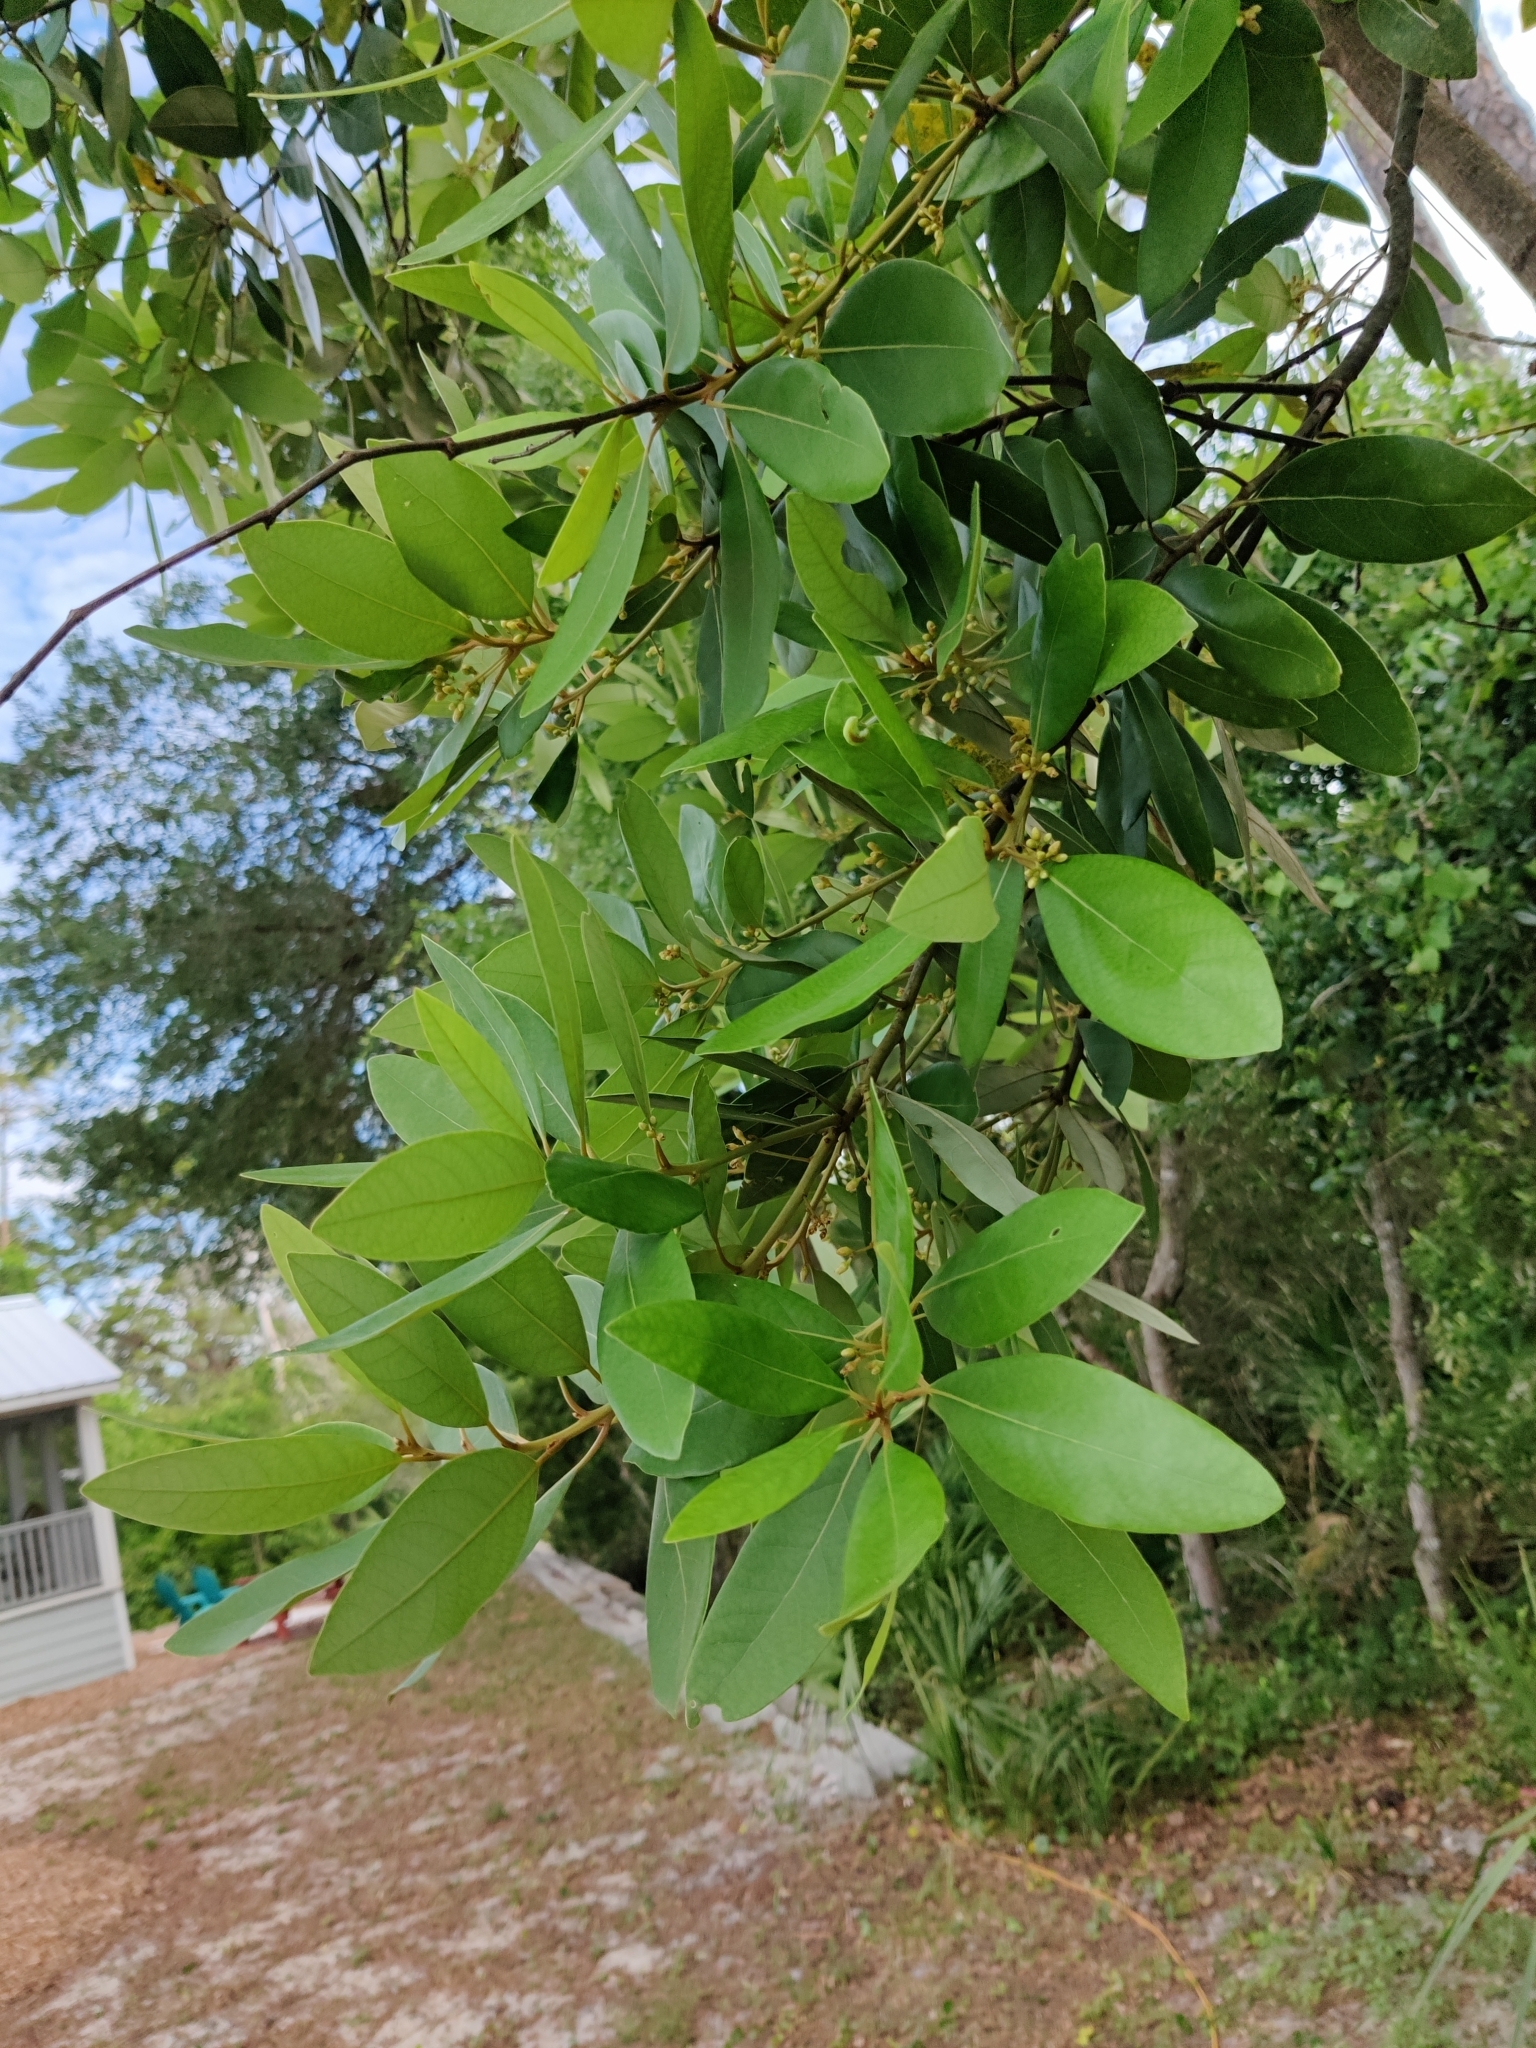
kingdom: Plantae
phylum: Tracheophyta
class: Magnoliopsida
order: Laurales
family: Lauraceae
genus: Persea
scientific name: Persea palustris
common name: Swampbay
